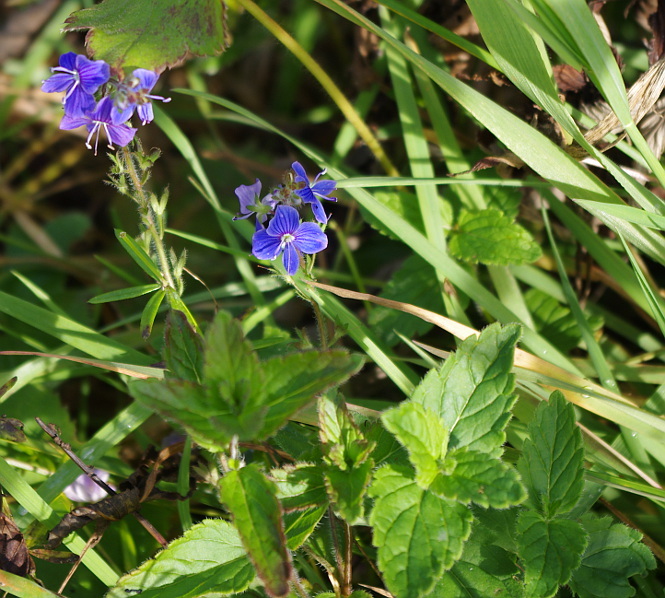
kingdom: Plantae
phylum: Tracheophyta
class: Magnoliopsida
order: Lamiales
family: Plantaginaceae
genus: Veronica
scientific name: Veronica chamaedrys
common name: Germander speedwell
